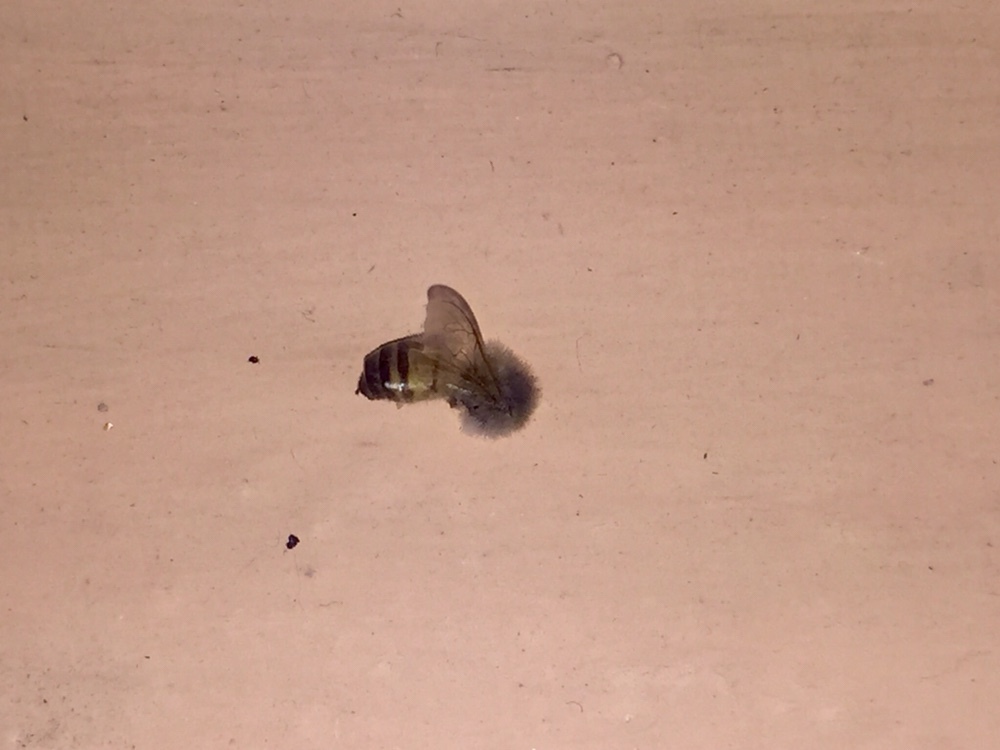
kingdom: Animalia
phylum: Arthropoda
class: Insecta
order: Hymenoptera
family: Apidae
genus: Apis
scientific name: Apis mellifera
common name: Honey bee
